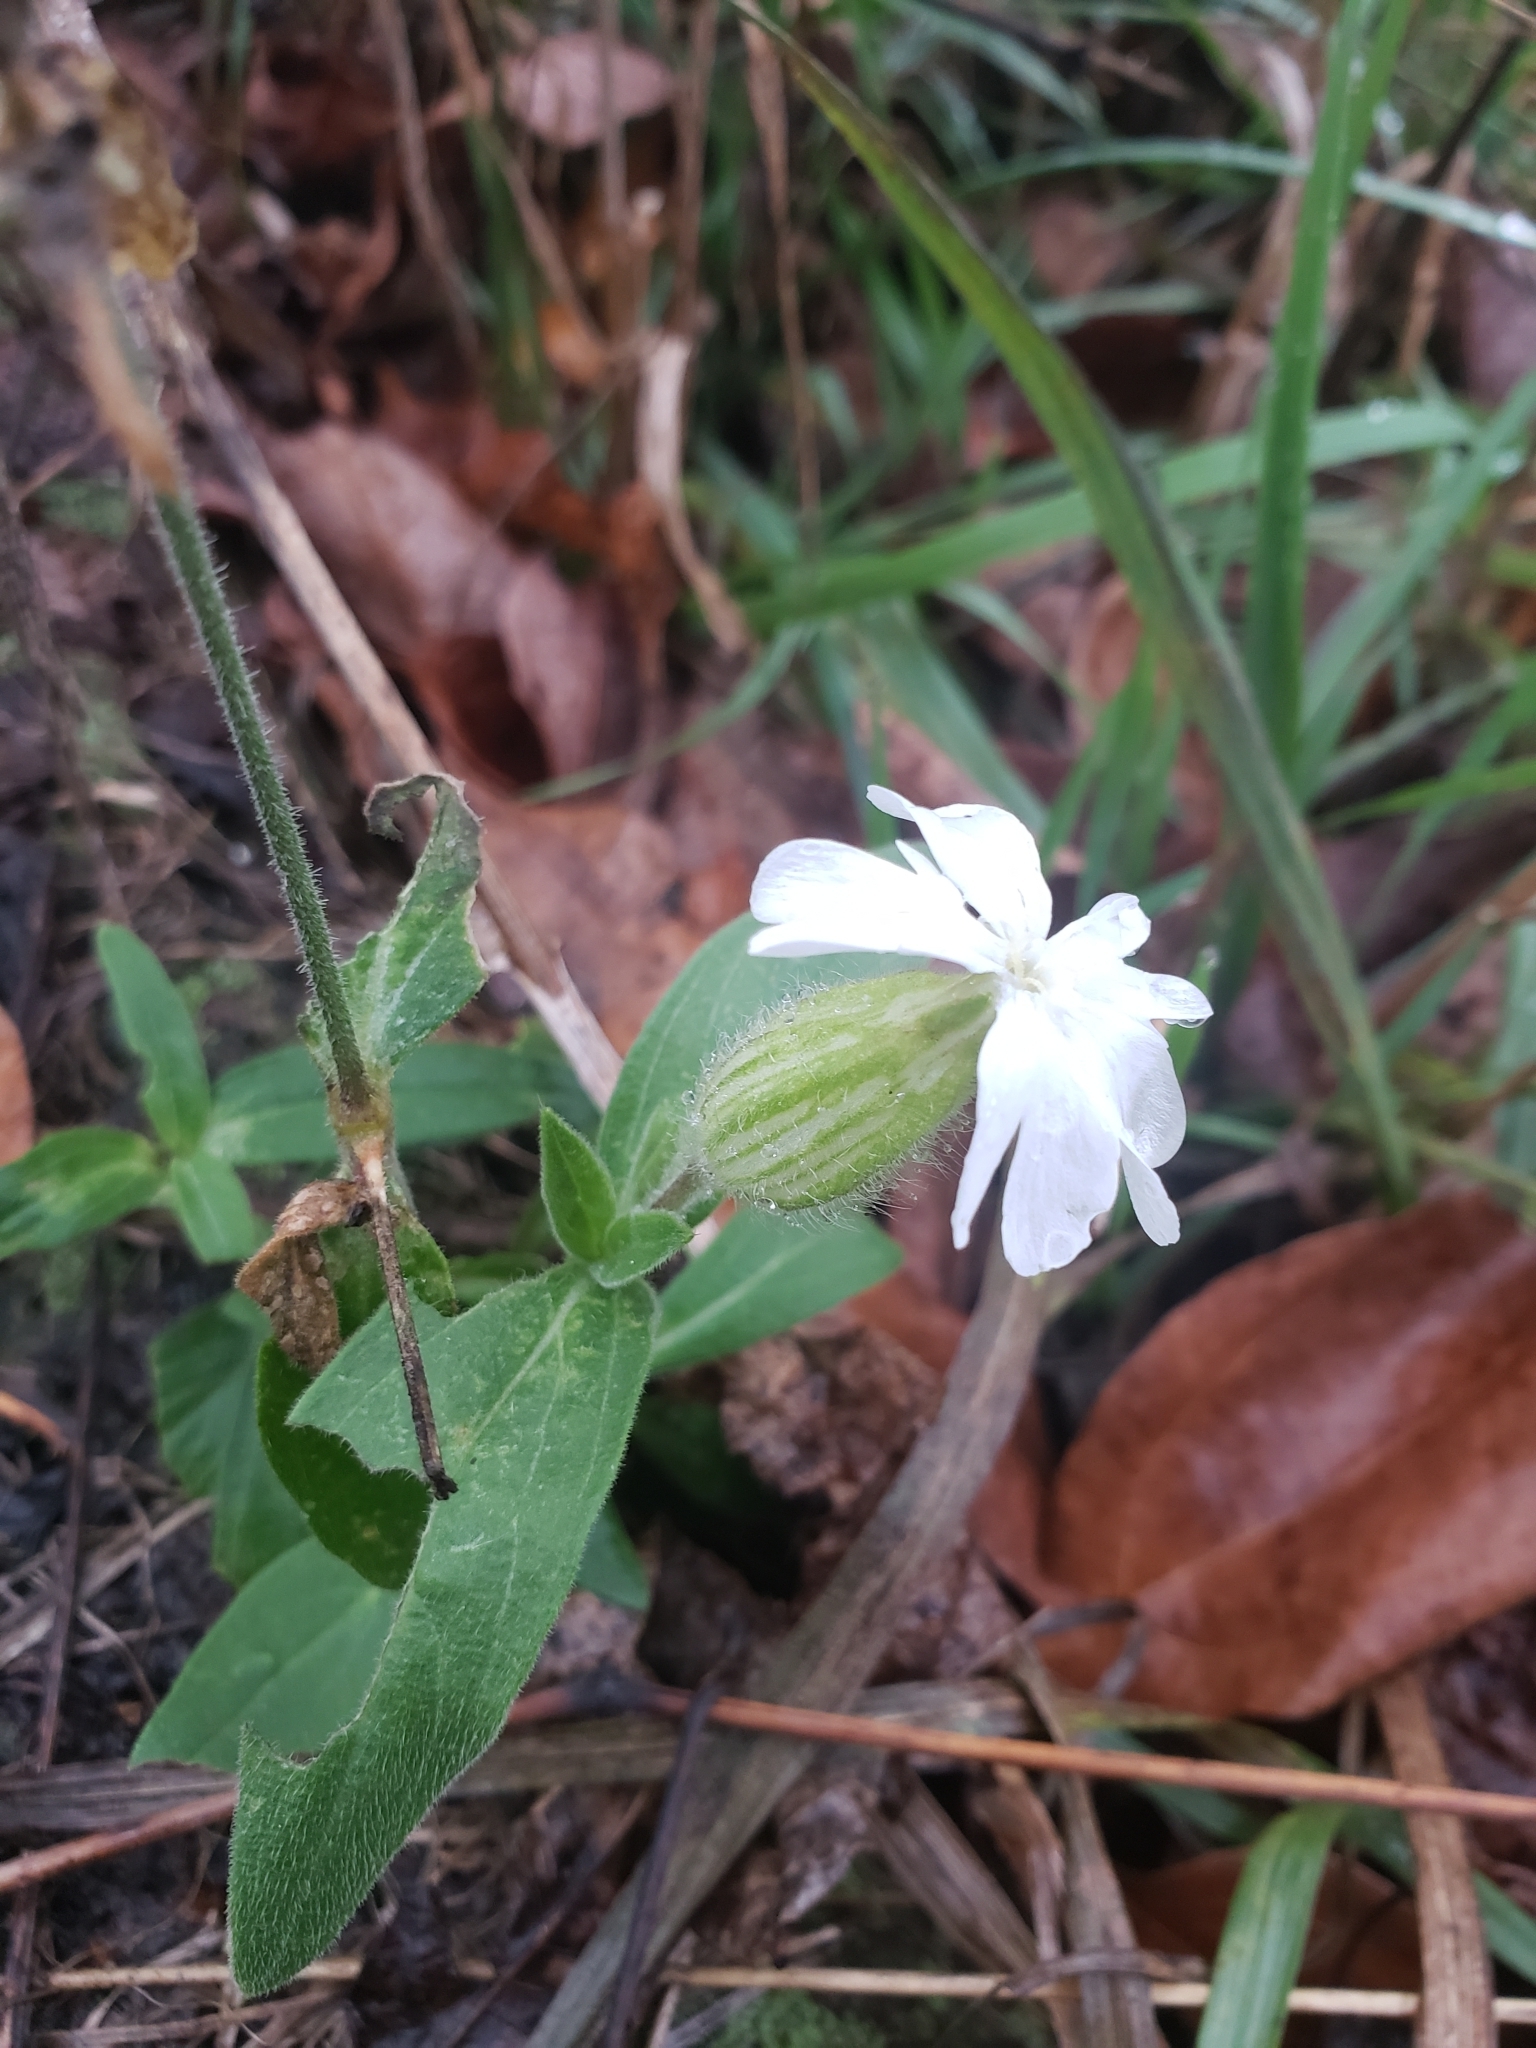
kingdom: Plantae
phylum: Tracheophyta
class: Magnoliopsida
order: Caryophyllales
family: Caryophyllaceae
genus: Silene
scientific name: Silene latifolia
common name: White campion
